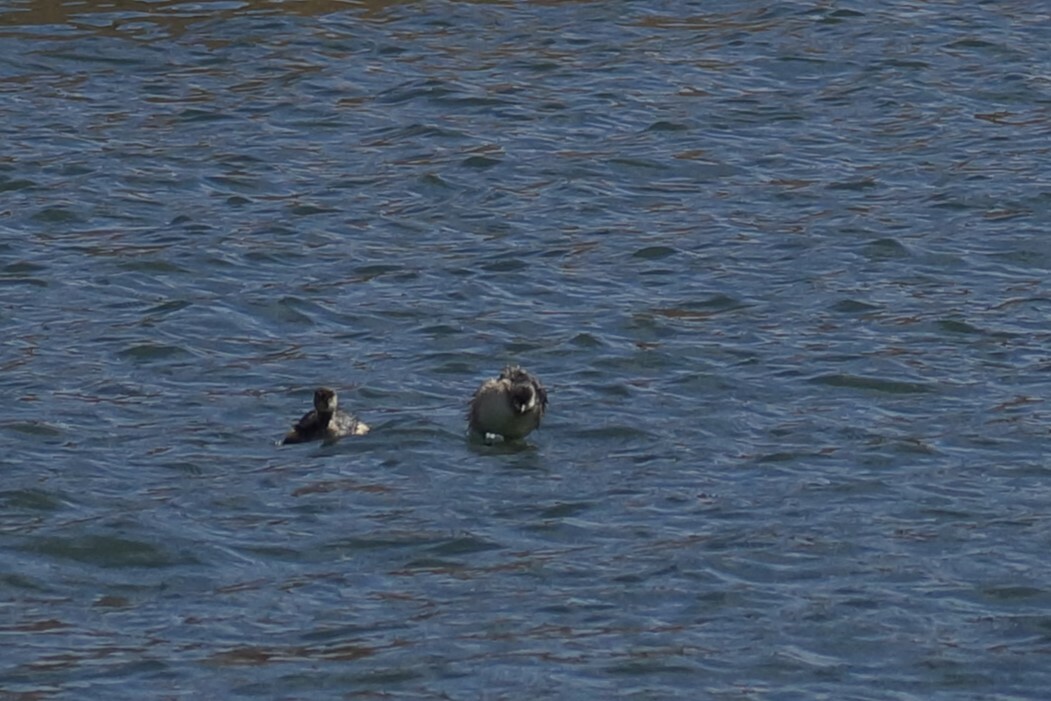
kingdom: Animalia
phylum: Chordata
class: Aves
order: Podicipediformes
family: Podicipedidae
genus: Tachybaptus
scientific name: Tachybaptus novaehollandiae
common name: Australasian grebe
